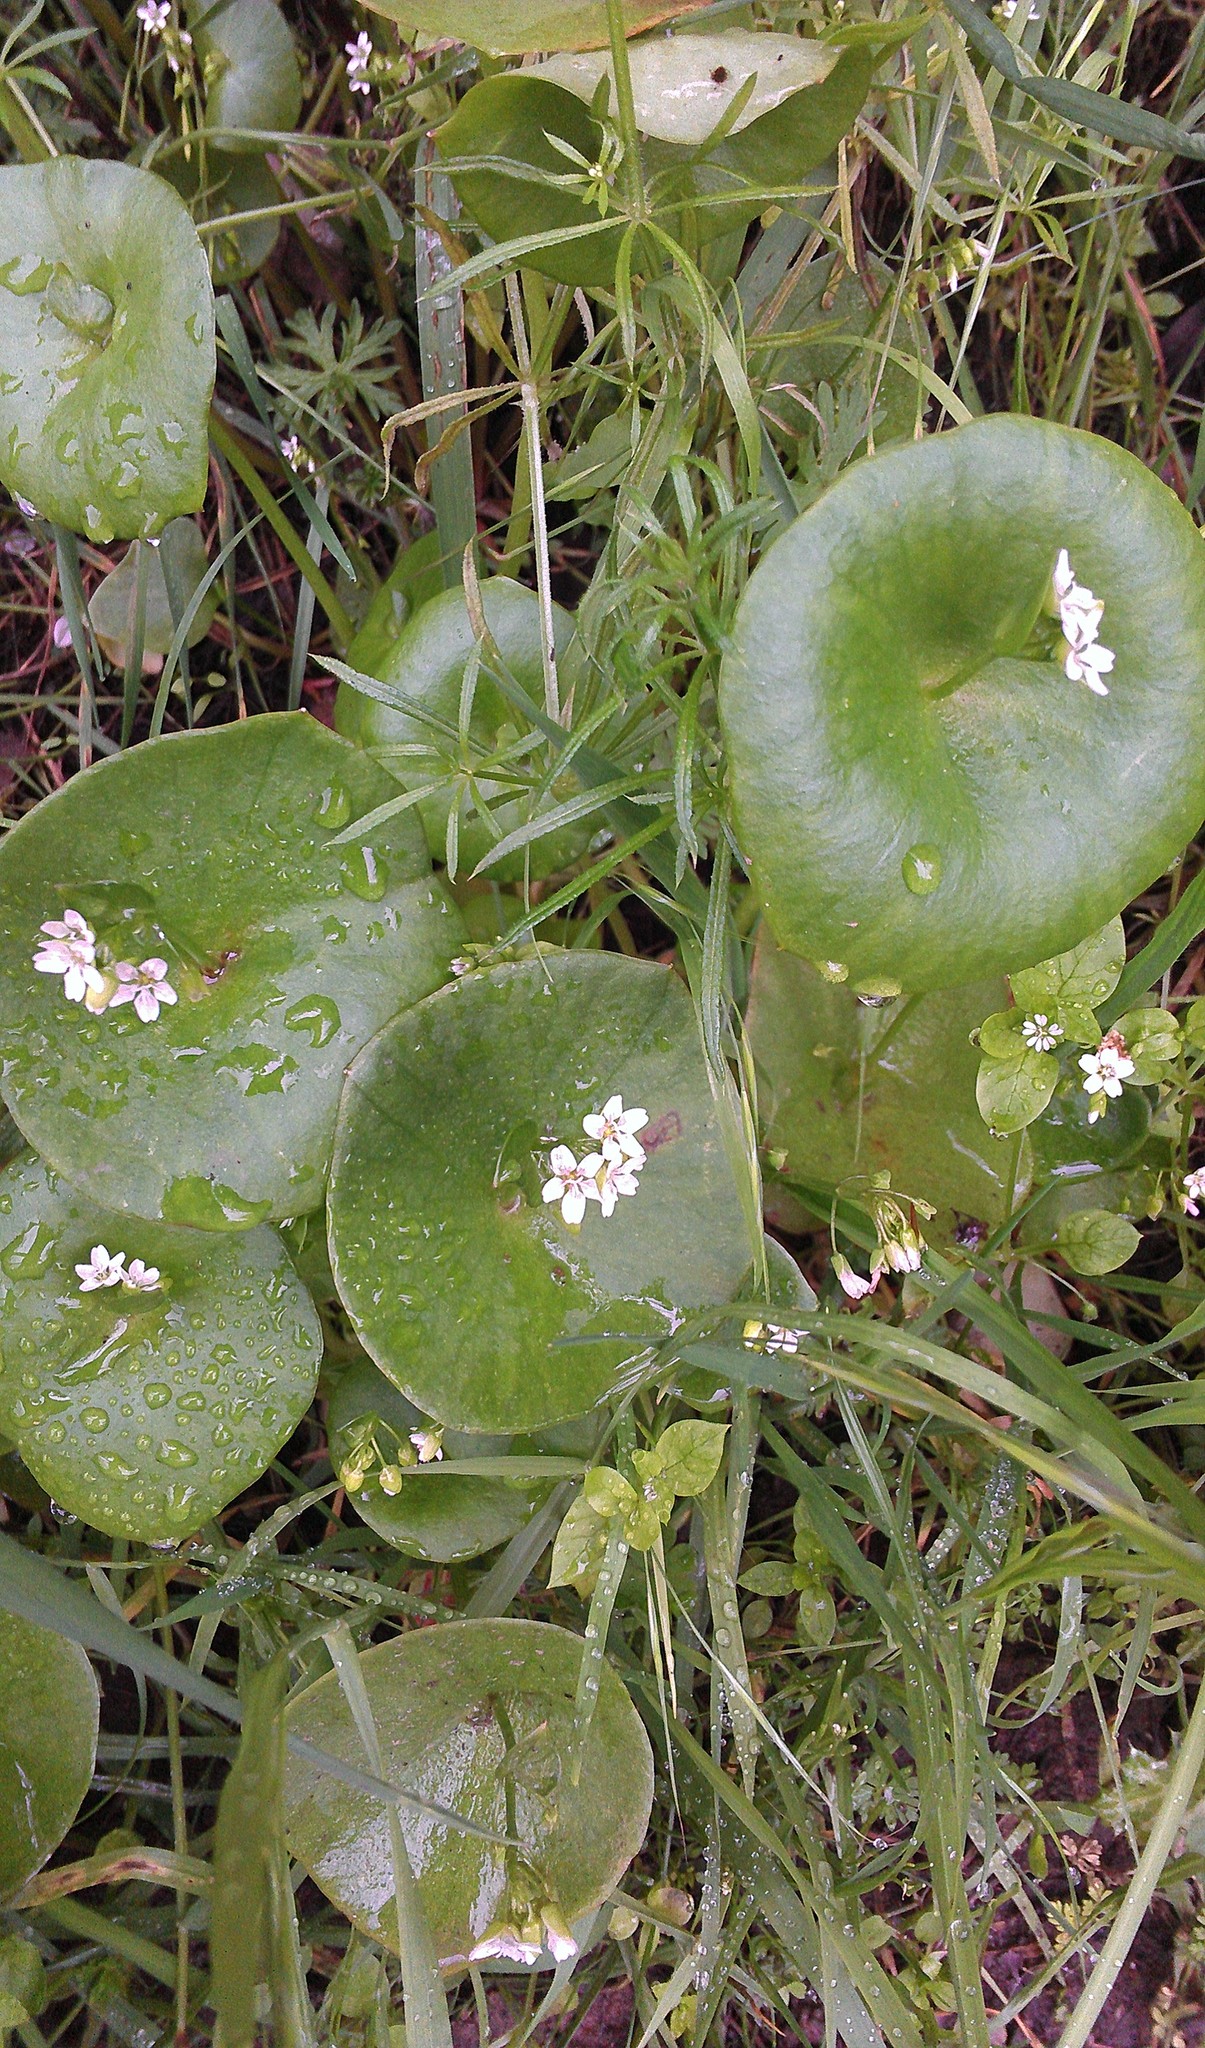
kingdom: Plantae
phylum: Tracheophyta
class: Magnoliopsida
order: Caryophyllales
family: Montiaceae
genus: Claytonia
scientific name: Claytonia perfoliata
